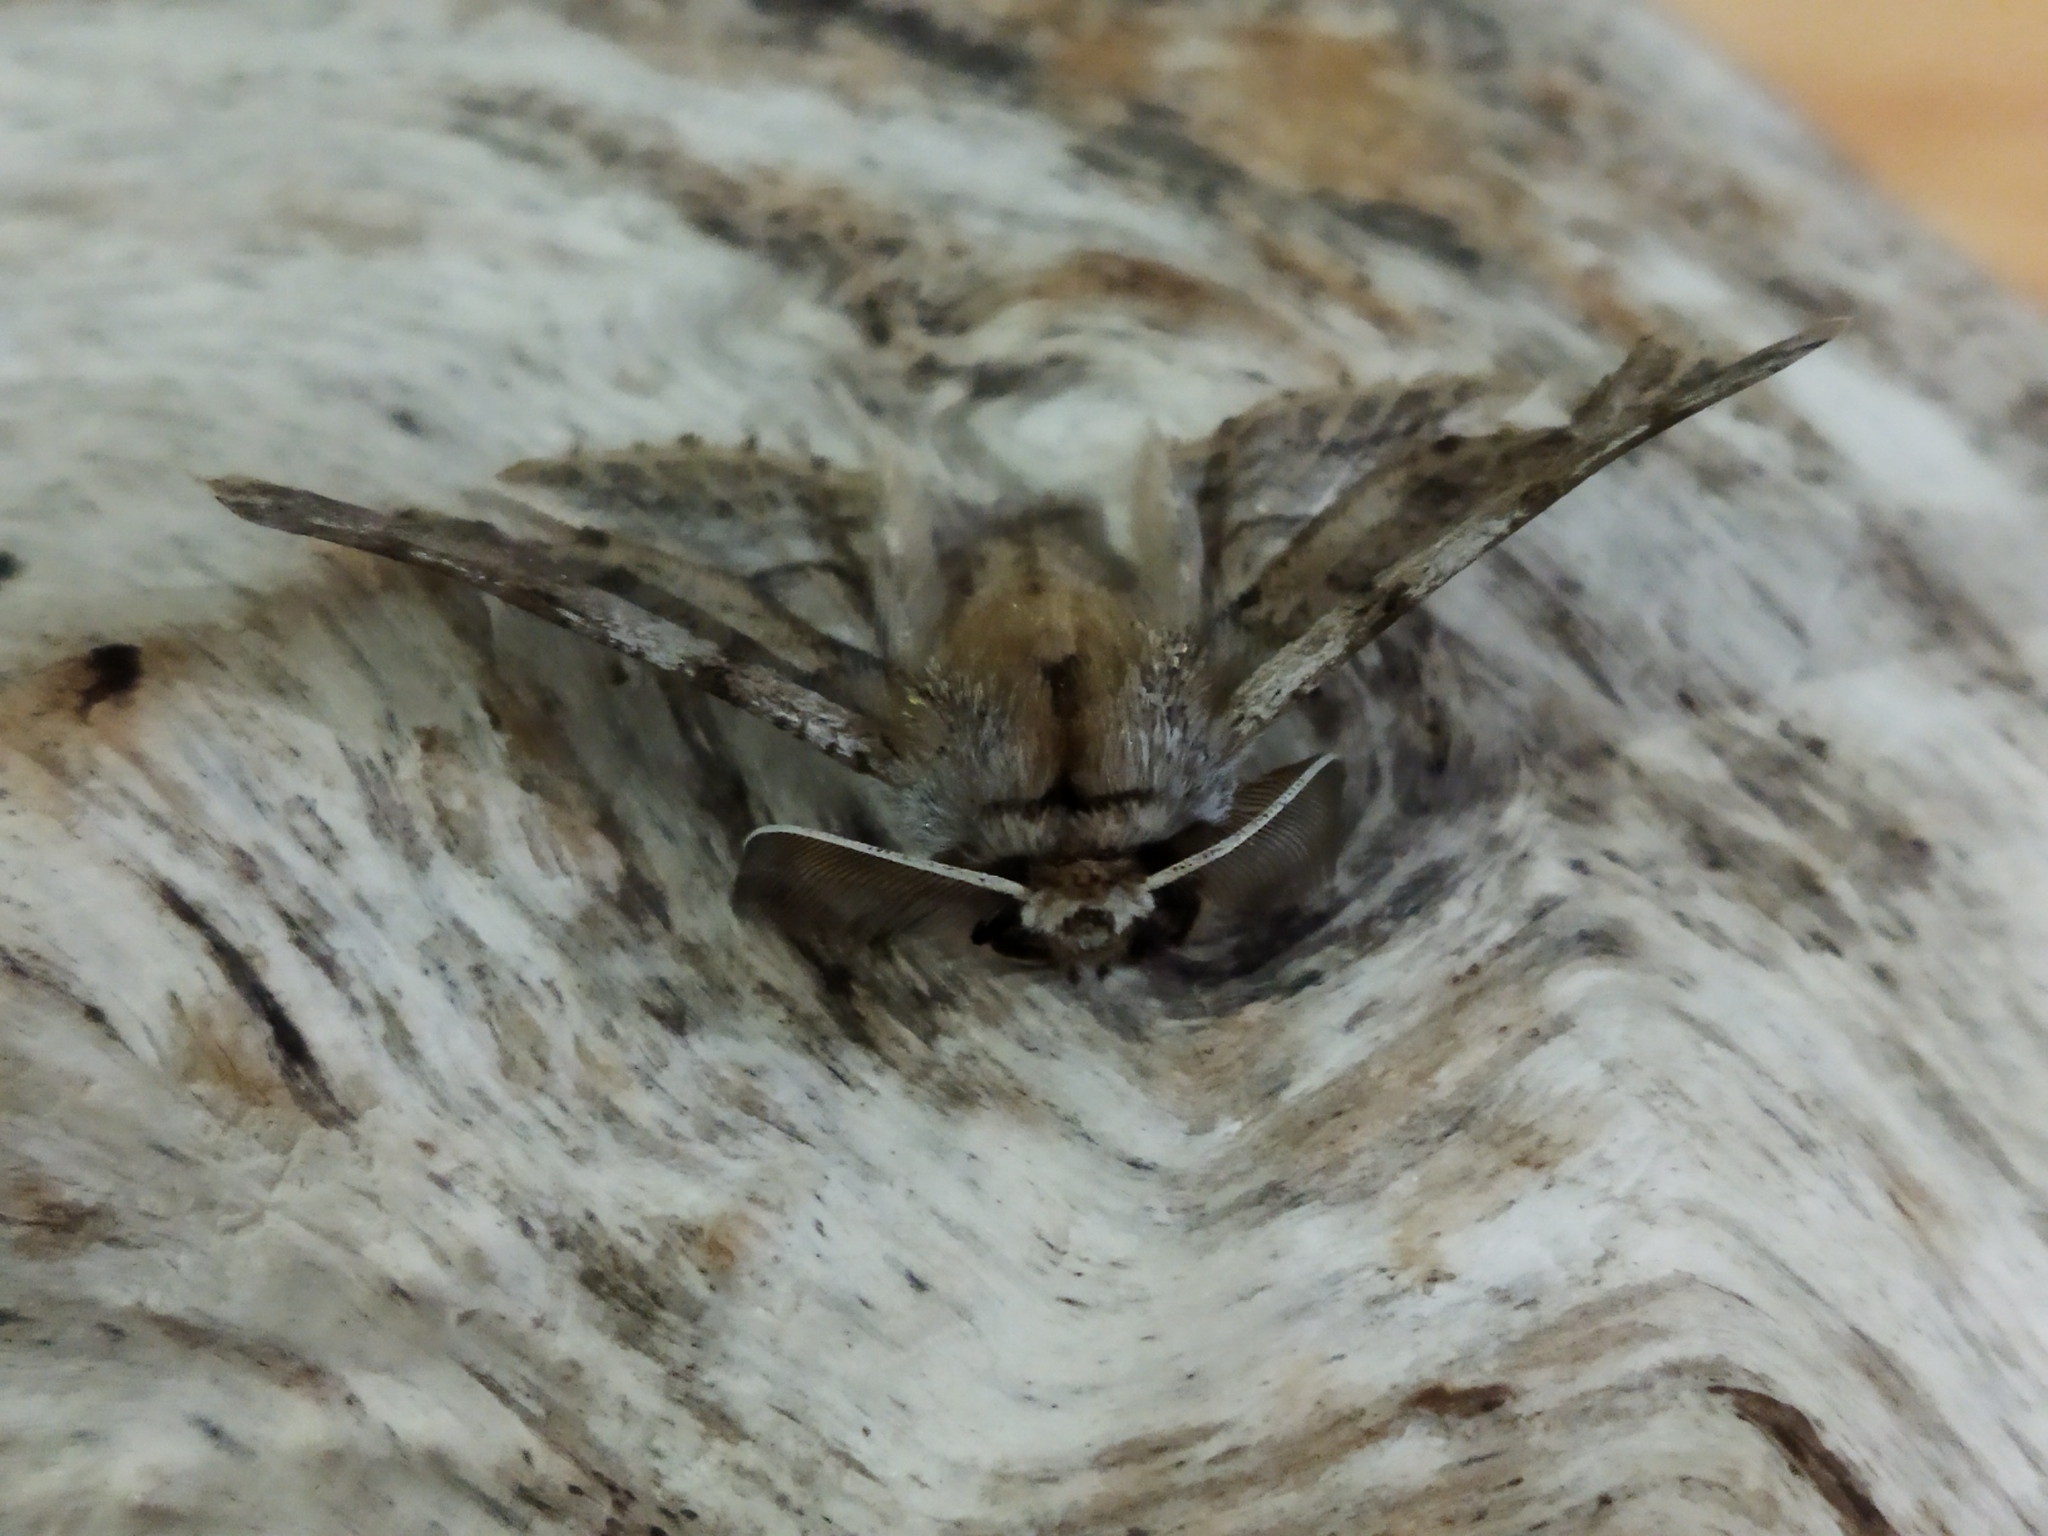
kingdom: Animalia
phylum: Arthropoda
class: Insecta
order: Lepidoptera
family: Geometridae
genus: Apochima
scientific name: Apochima flabellaria
